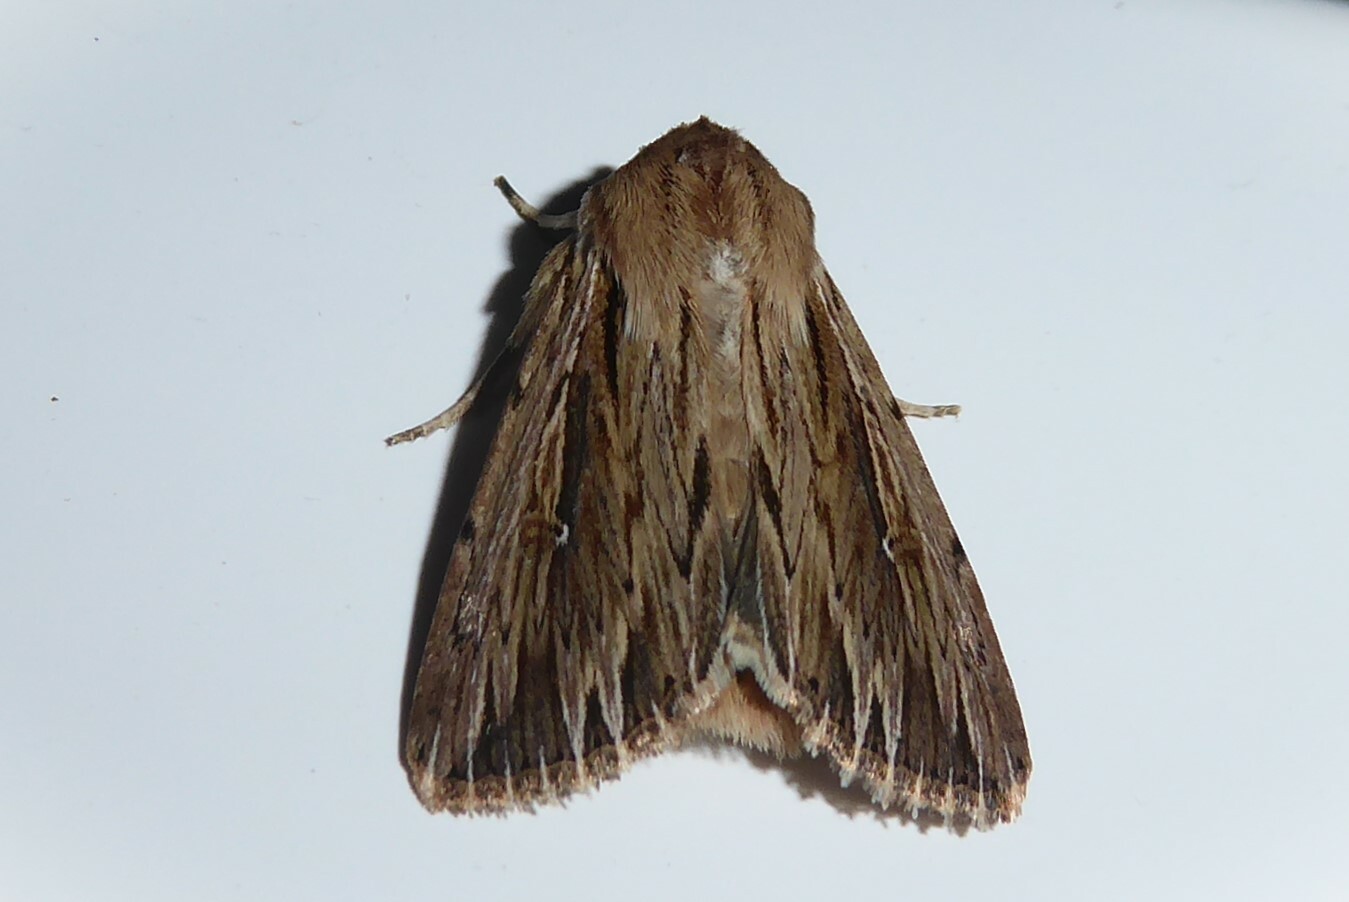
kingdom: Animalia
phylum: Arthropoda
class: Insecta
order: Lepidoptera
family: Noctuidae
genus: Persectania
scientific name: Persectania aversa
